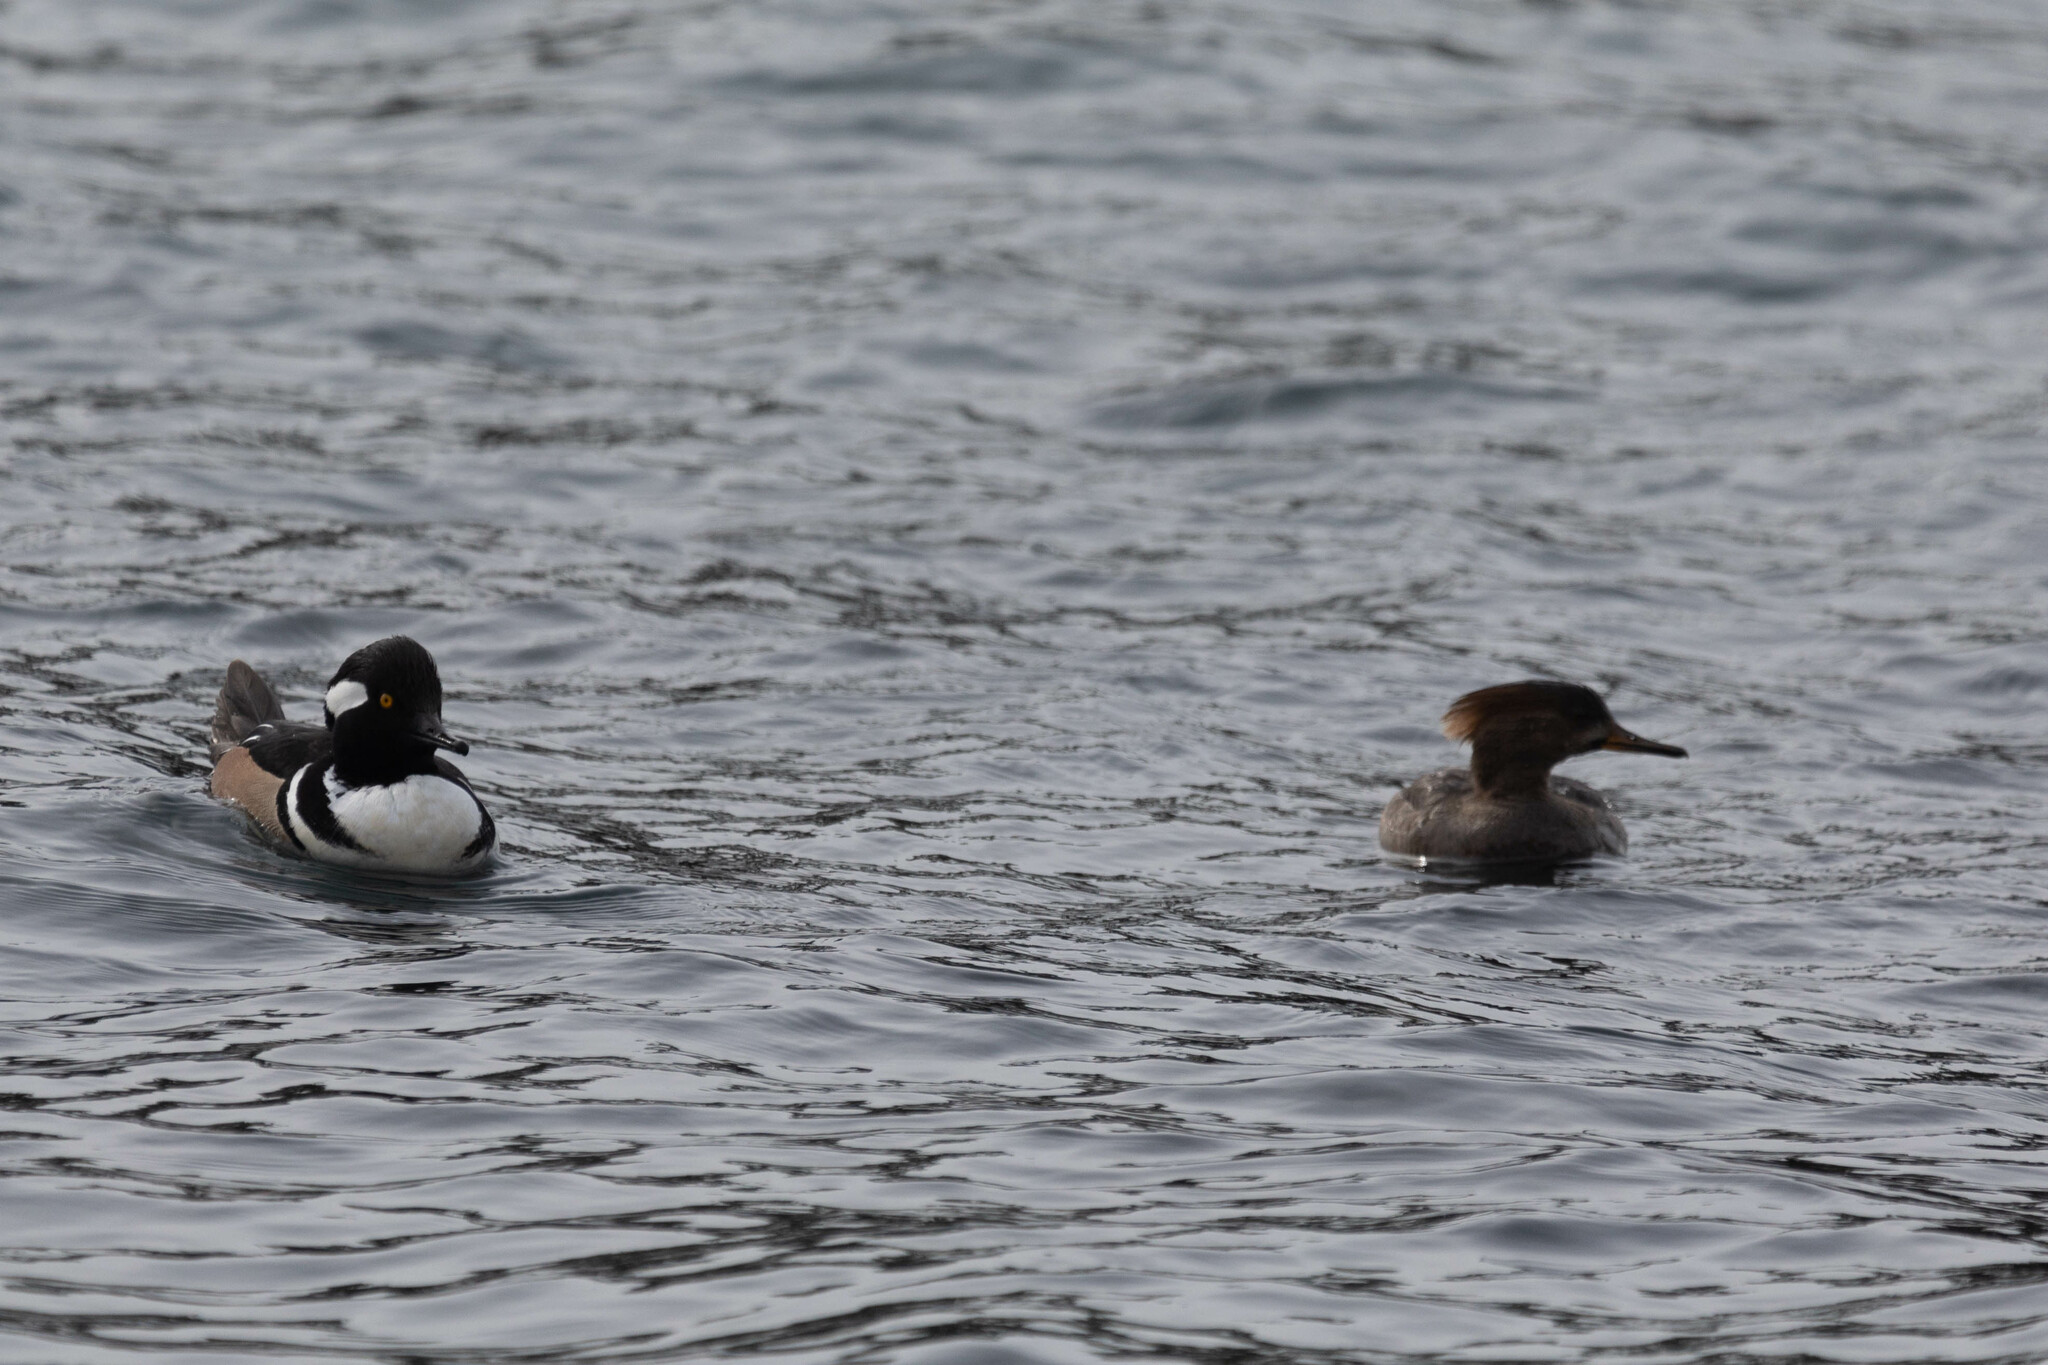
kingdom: Animalia
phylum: Chordata
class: Aves
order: Anseriformes
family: Anatidae
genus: Lophodytes
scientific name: Lophodytes cucullatus
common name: Hooded merganser
